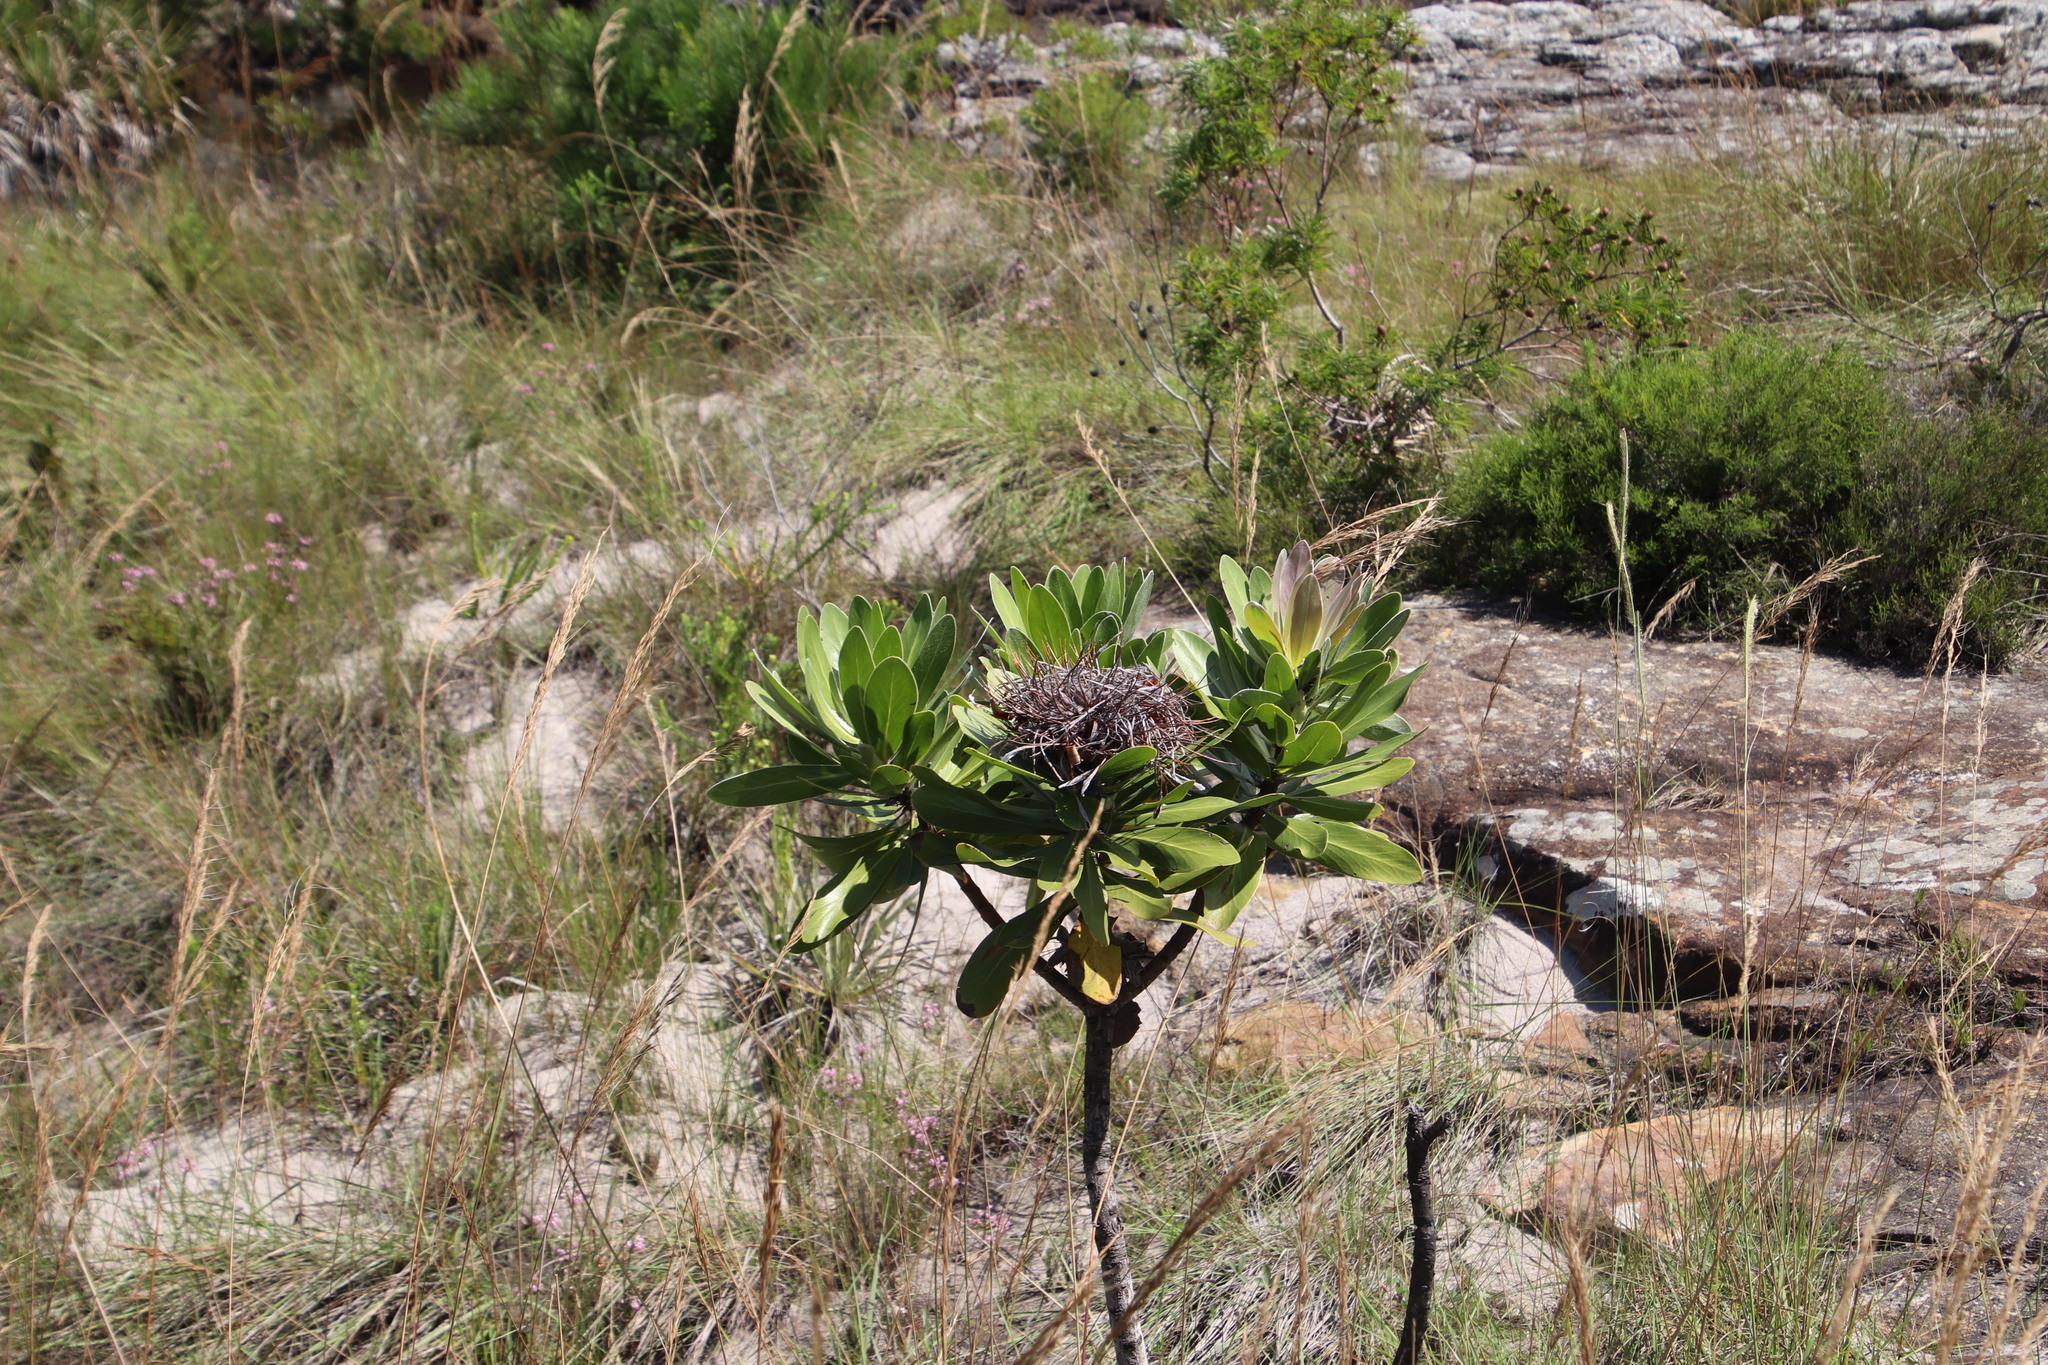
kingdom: Plantae
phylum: Tracheophyta
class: Magnoliopsida
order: Proteales
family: Proteaceae
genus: Protea
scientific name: Protea roupelliae
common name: Silver sugarbush
